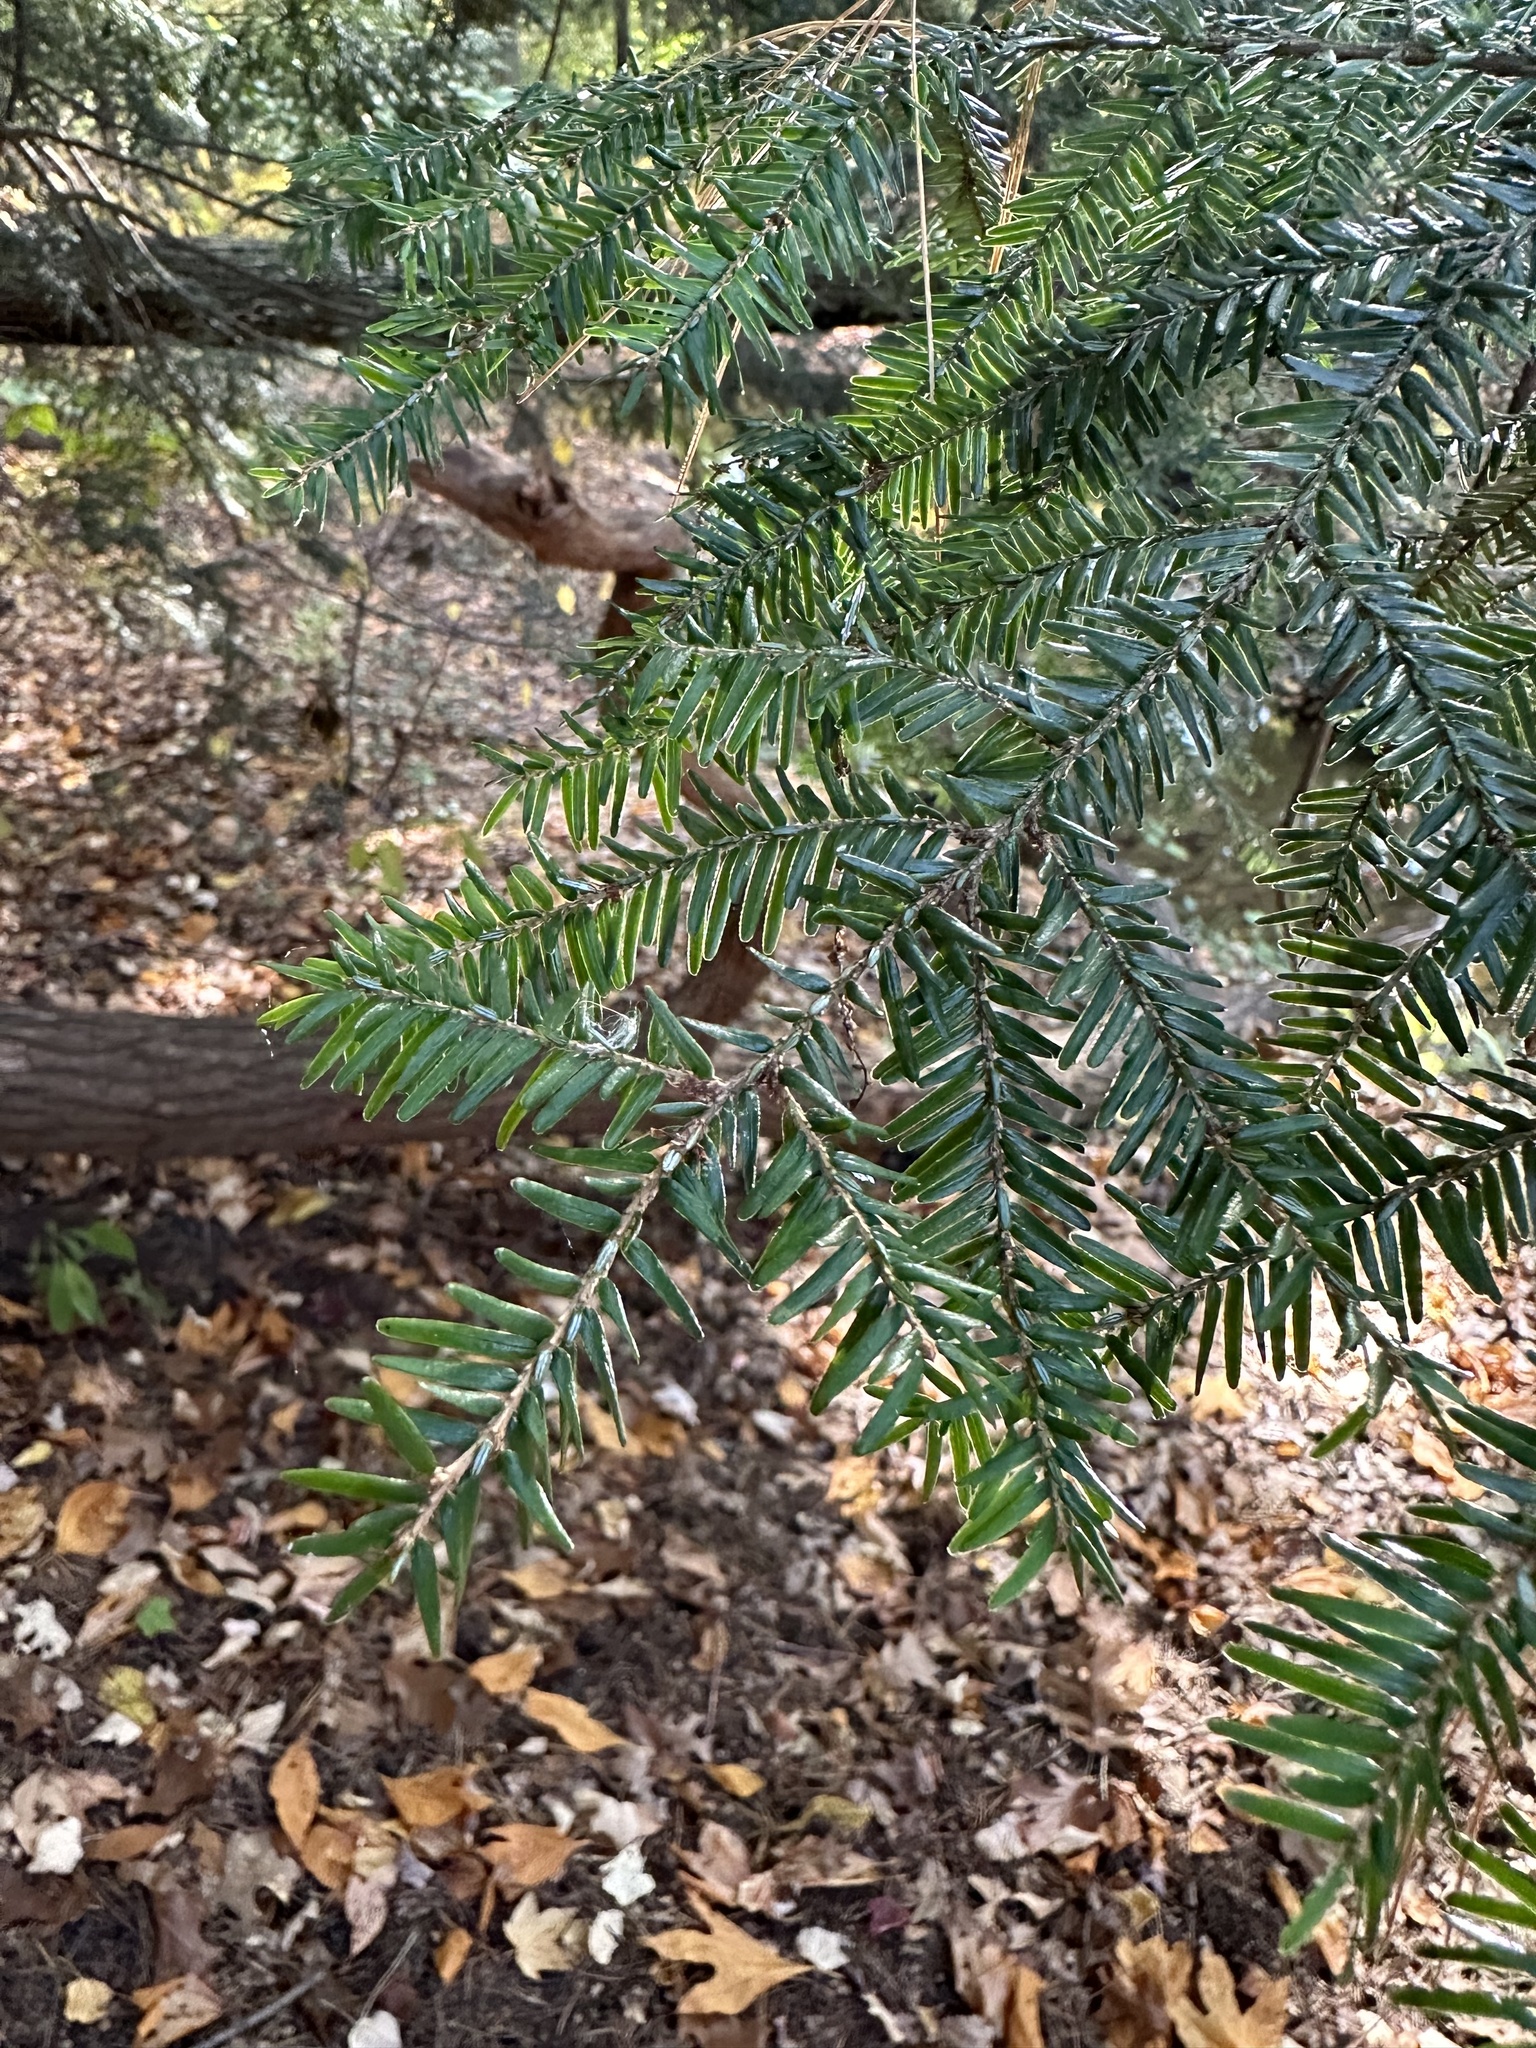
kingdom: Plantae
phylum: Tracheophyta
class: Pinopsida
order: Pinales
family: Pinaceae
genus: Tsuga
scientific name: Tsuga canadensis
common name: Eastern hemlock
